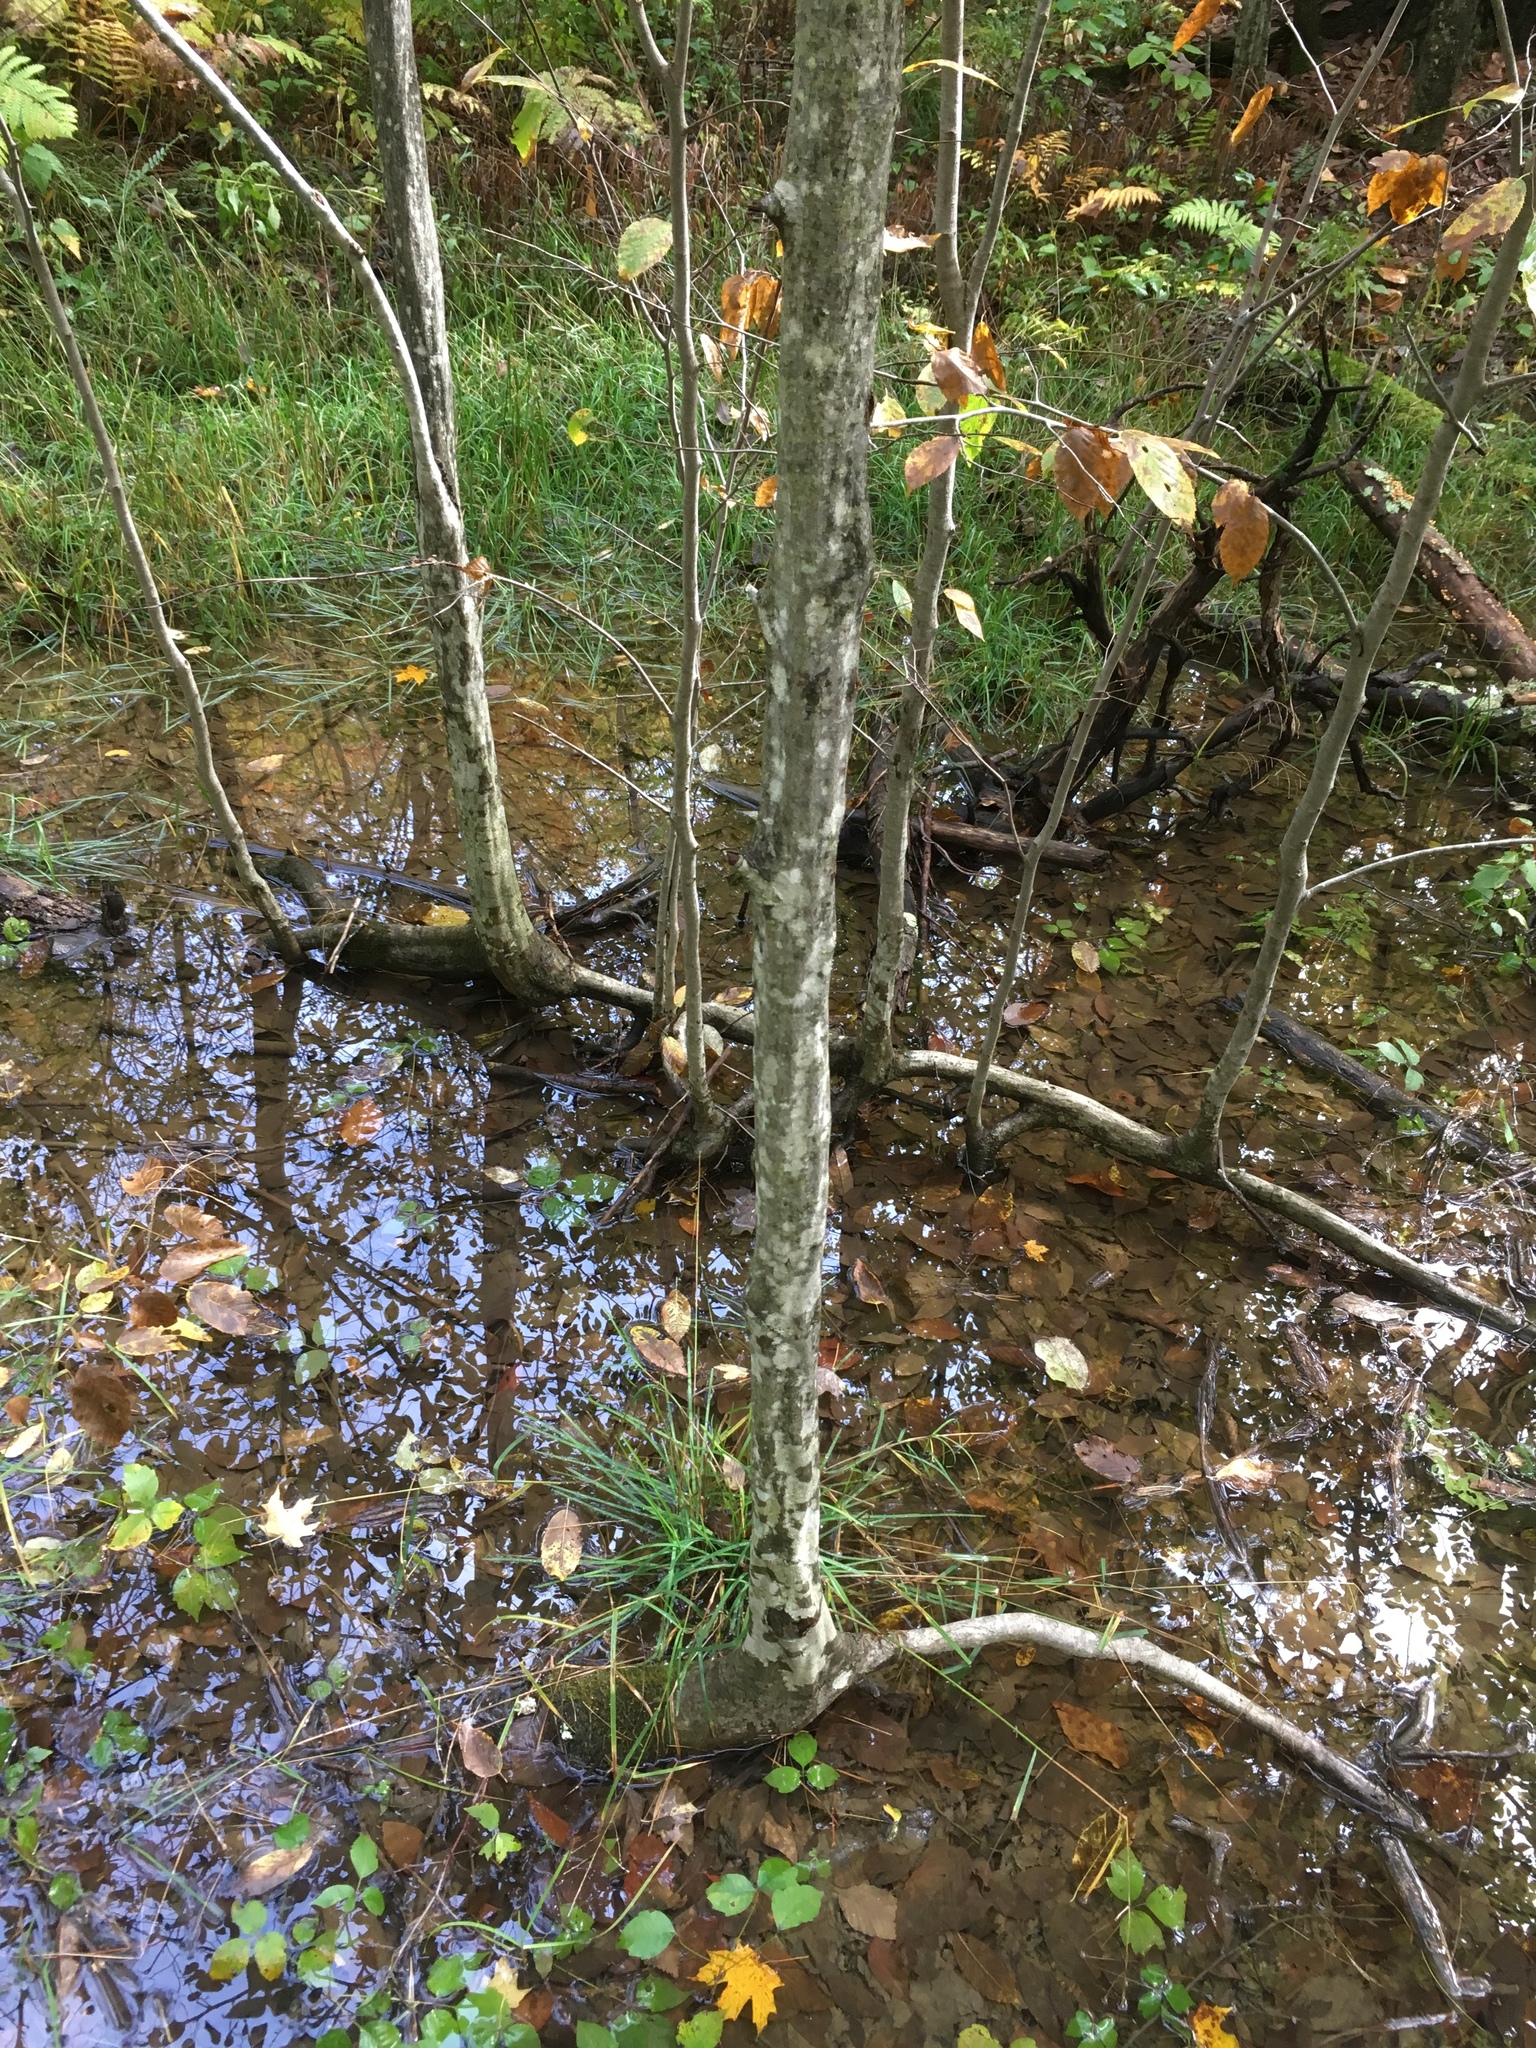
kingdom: Plantae
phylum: Tracheophyta
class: Magnoliopsida
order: Fagales
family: Betulaceae
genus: Carpinus
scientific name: Carpinus caroliniana
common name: American hornbeam
